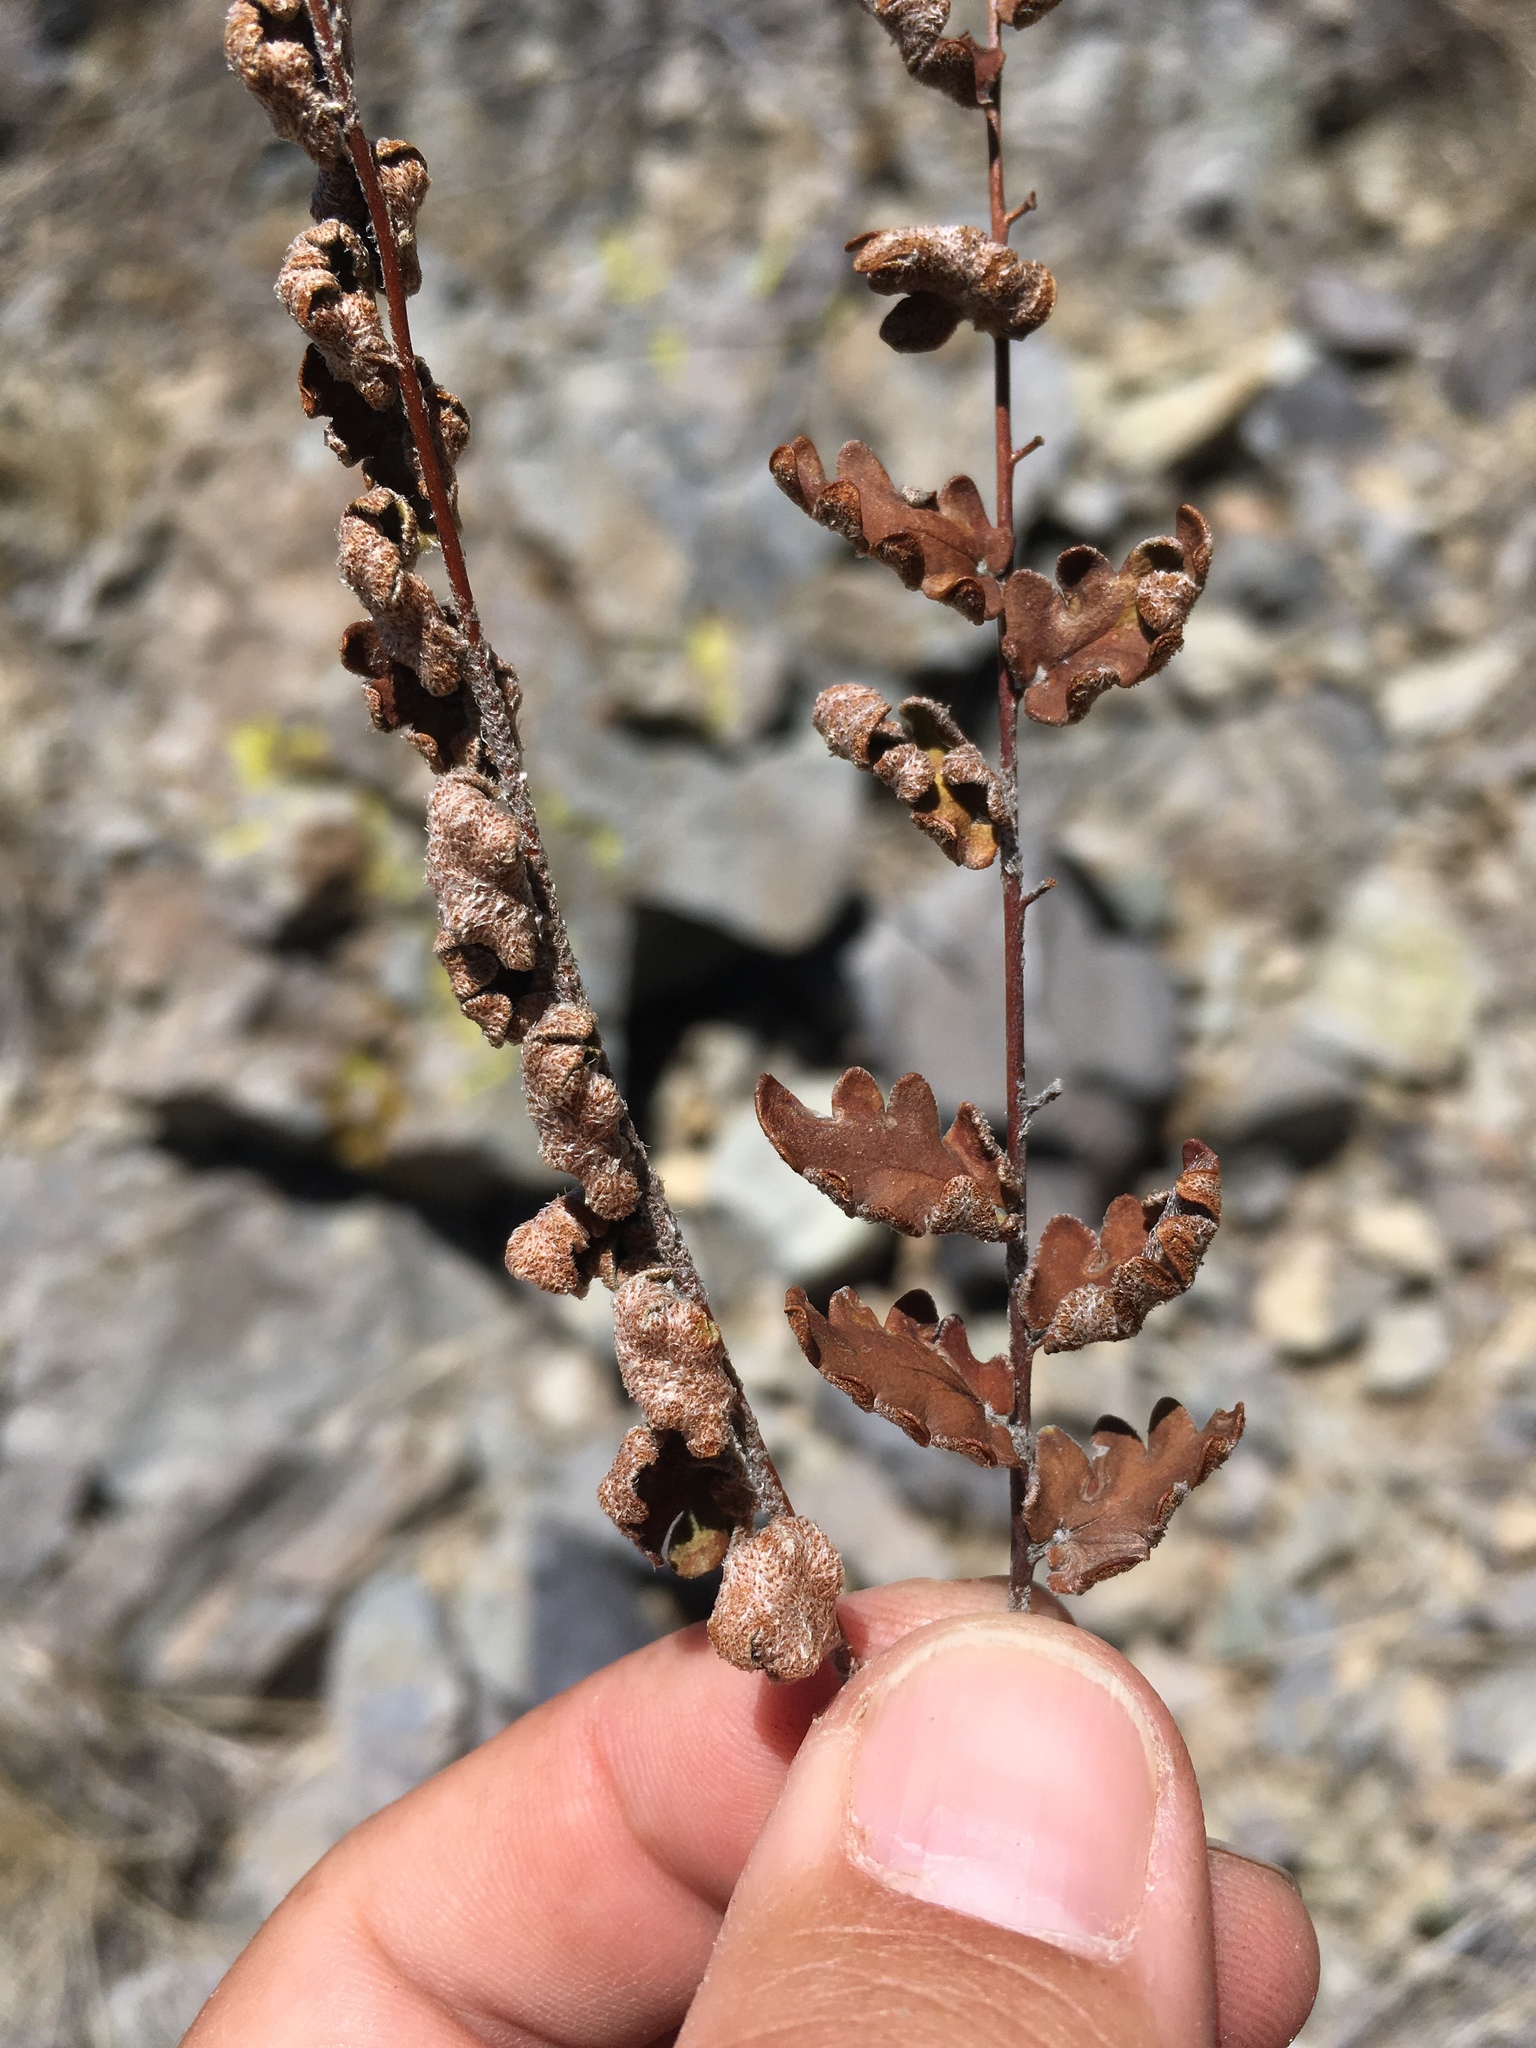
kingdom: Plantae
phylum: Tracheophyta
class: Polypodiopsida
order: Polypodiales
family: Pteridaceae
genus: Astrolepis
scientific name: Astrolepis sinuata
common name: Wavy scaly cloakfern
